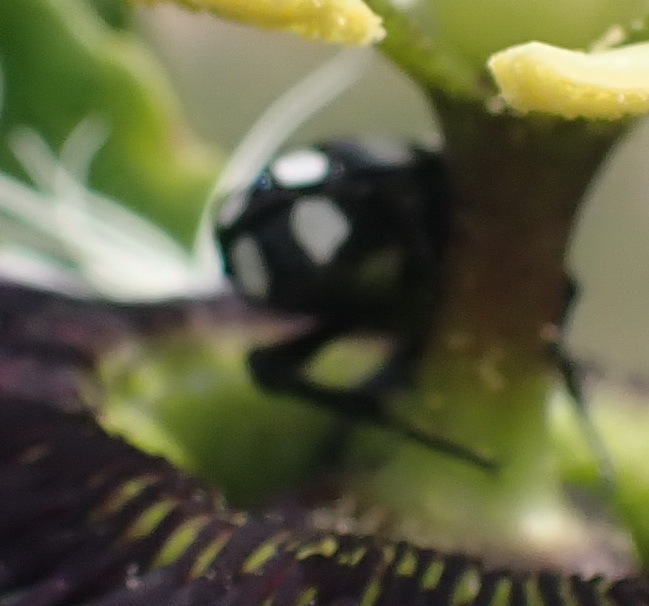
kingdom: Animalia
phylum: Arthropoda
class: Insecta
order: Coleoptera
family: Scarabaeidae
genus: Mausoleopsis
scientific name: Mausoleopsis amabilis
